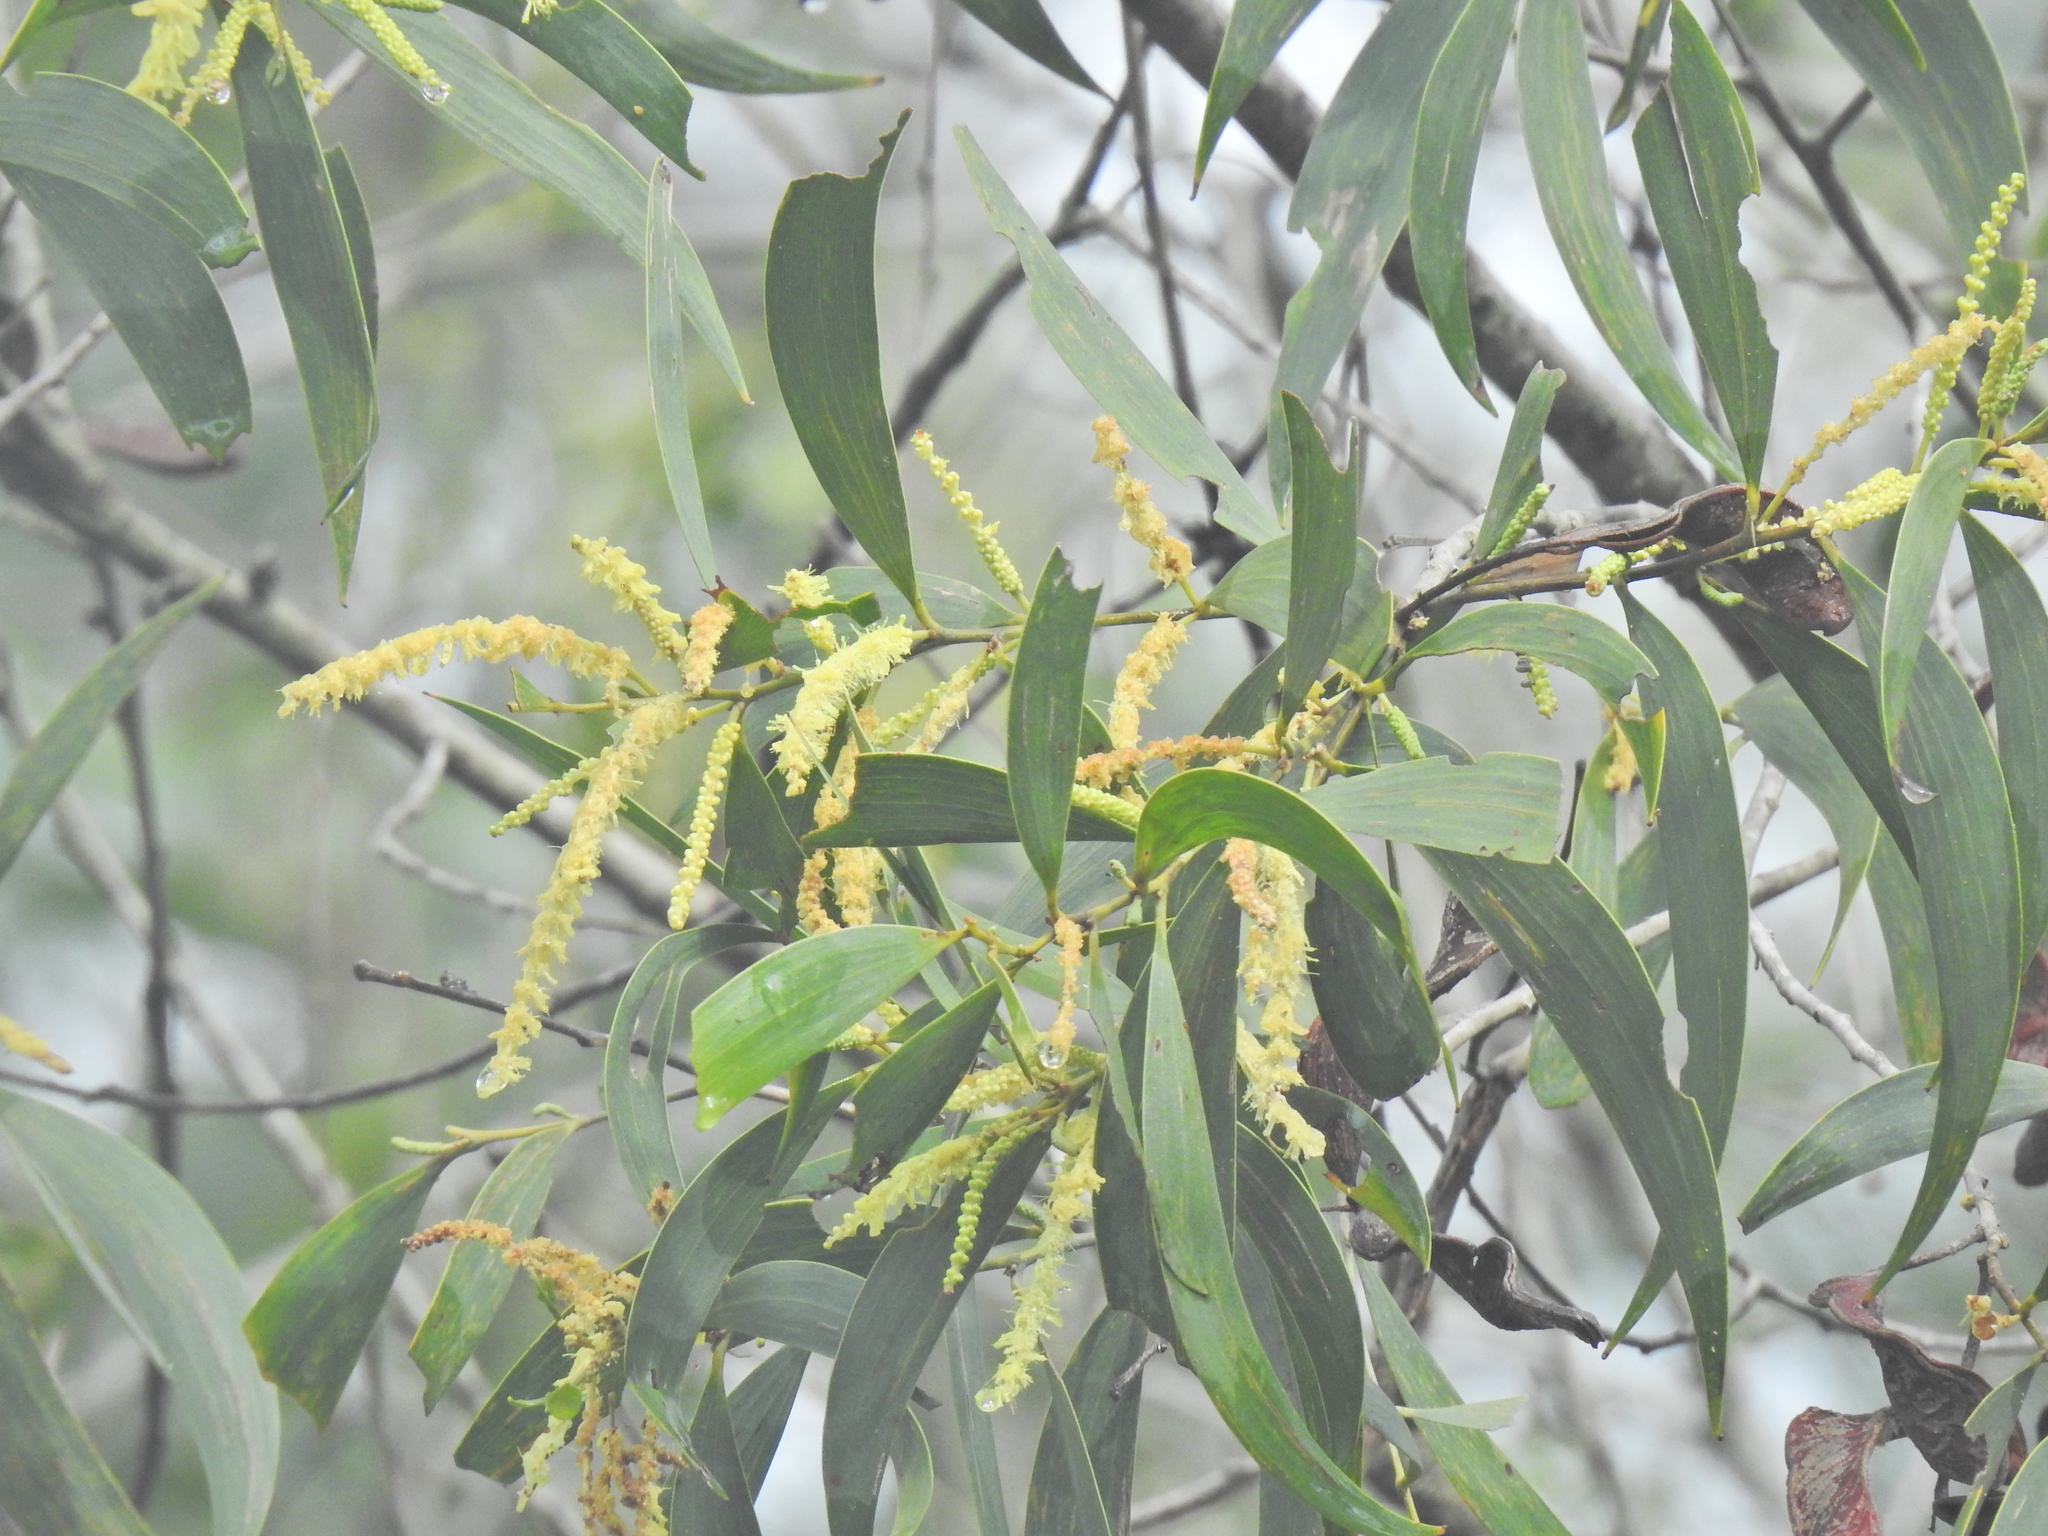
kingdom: Plantae
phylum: Tracheophyta
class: Magnoliopsida
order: Fabales
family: Fabaceae
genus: Acacia
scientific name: Acacia disparrima
